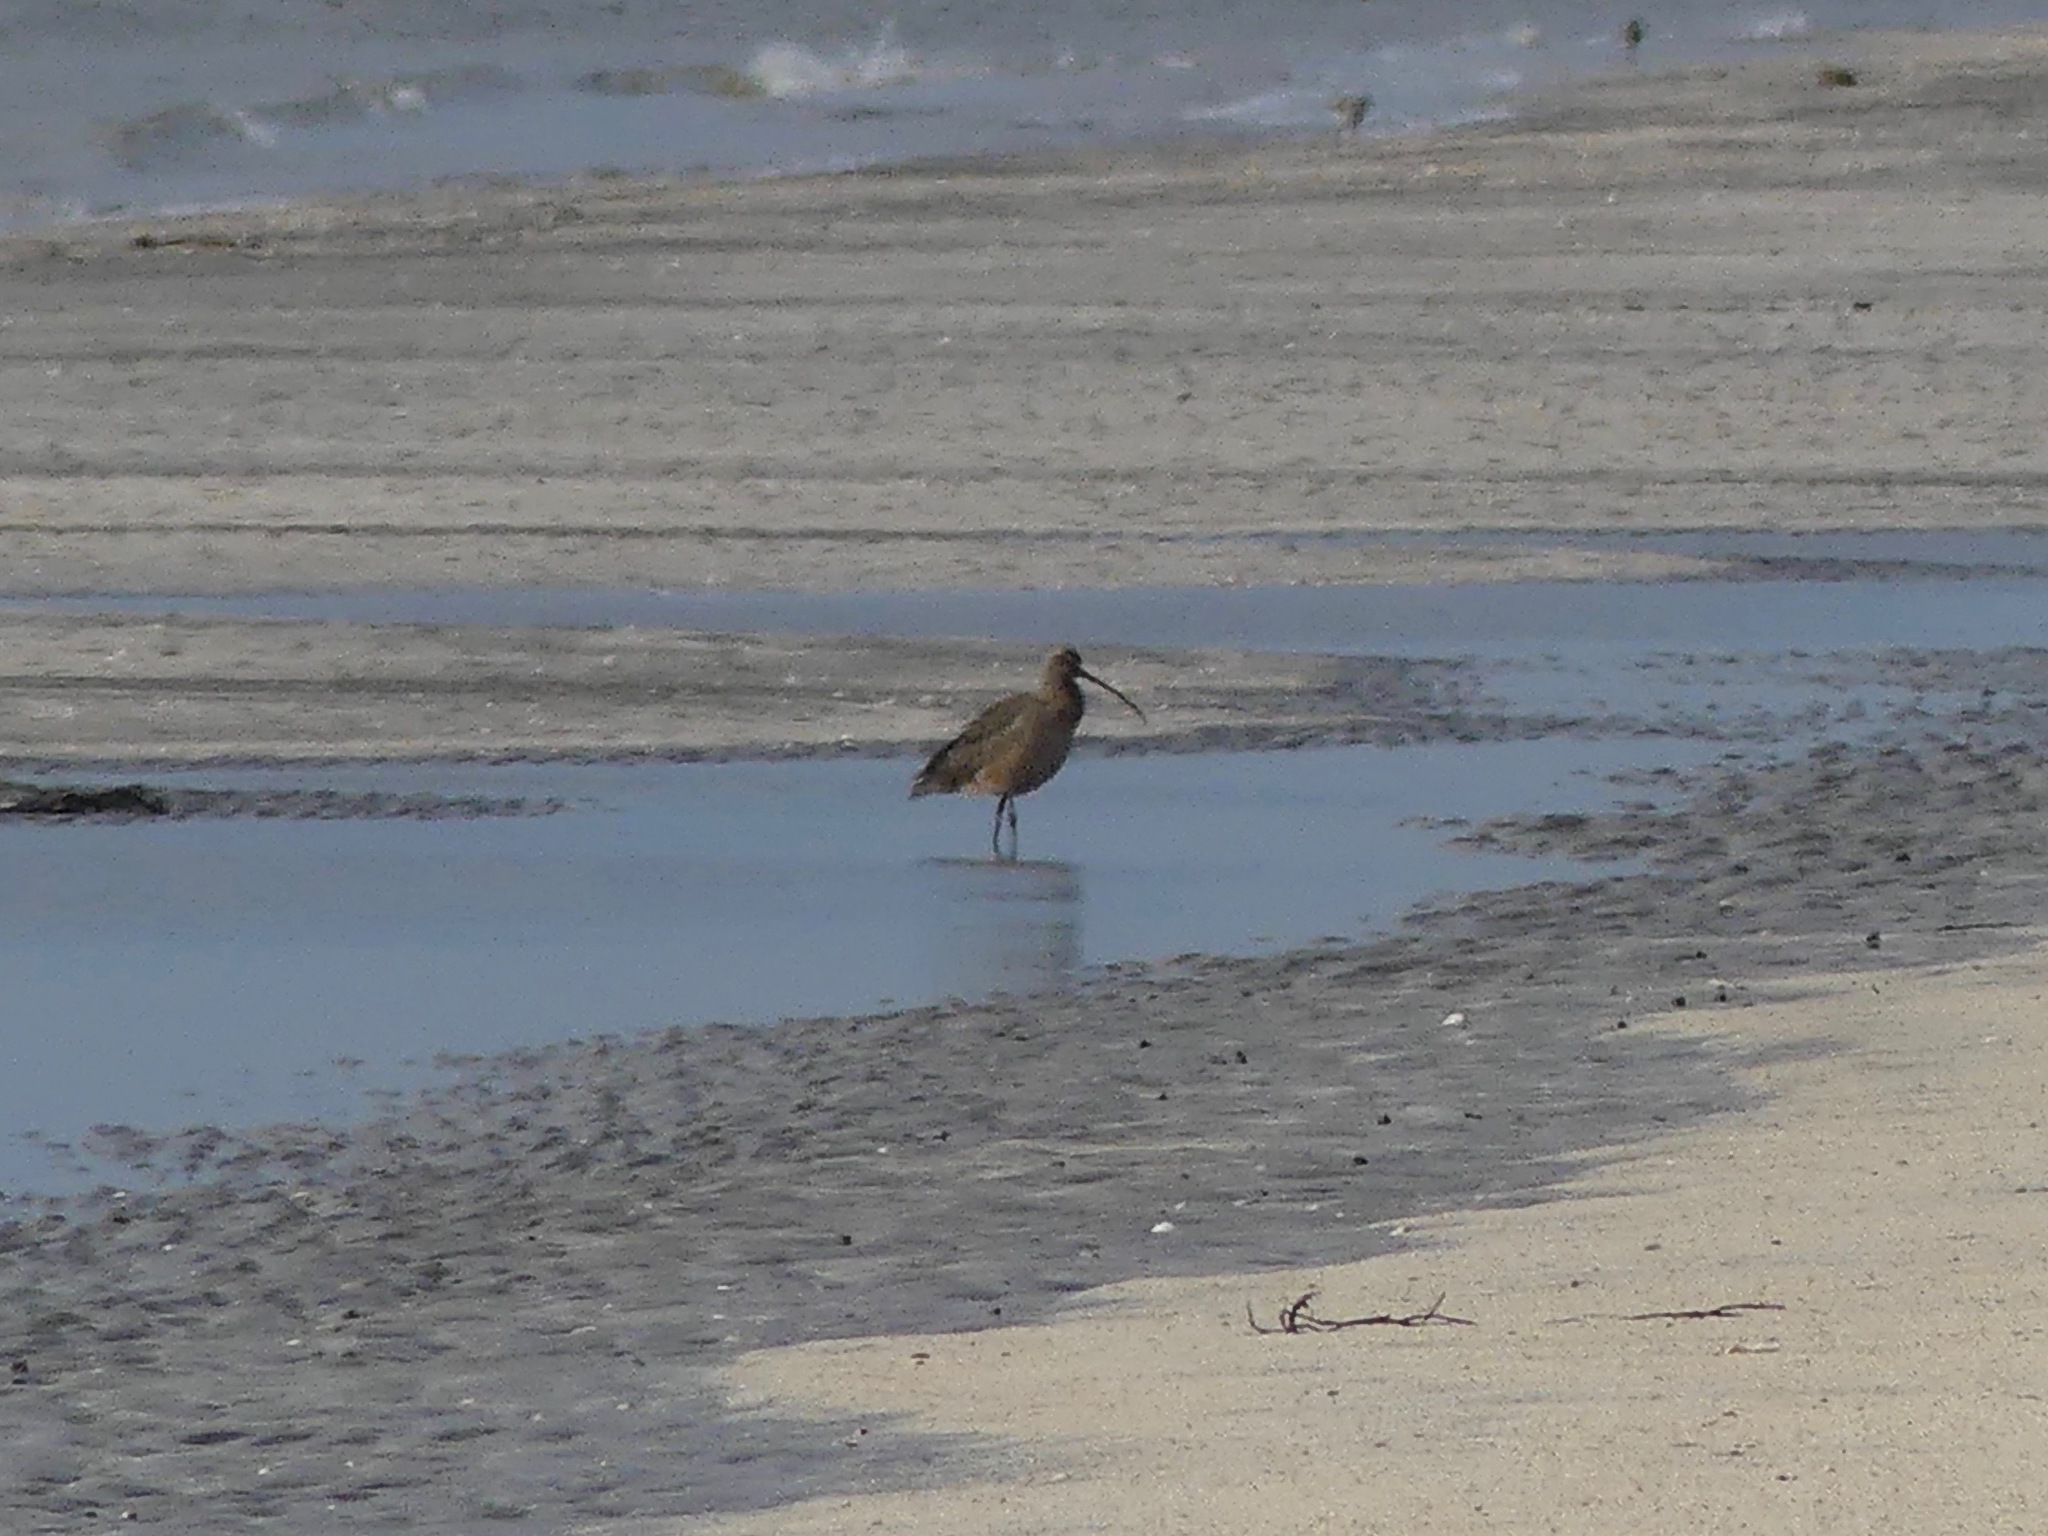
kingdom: Animalia
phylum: Chordata
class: Aves
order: Charadriiformes
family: Scolopacidae
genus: Numenius
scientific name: Numenius americanus
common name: Long-billed curlew
